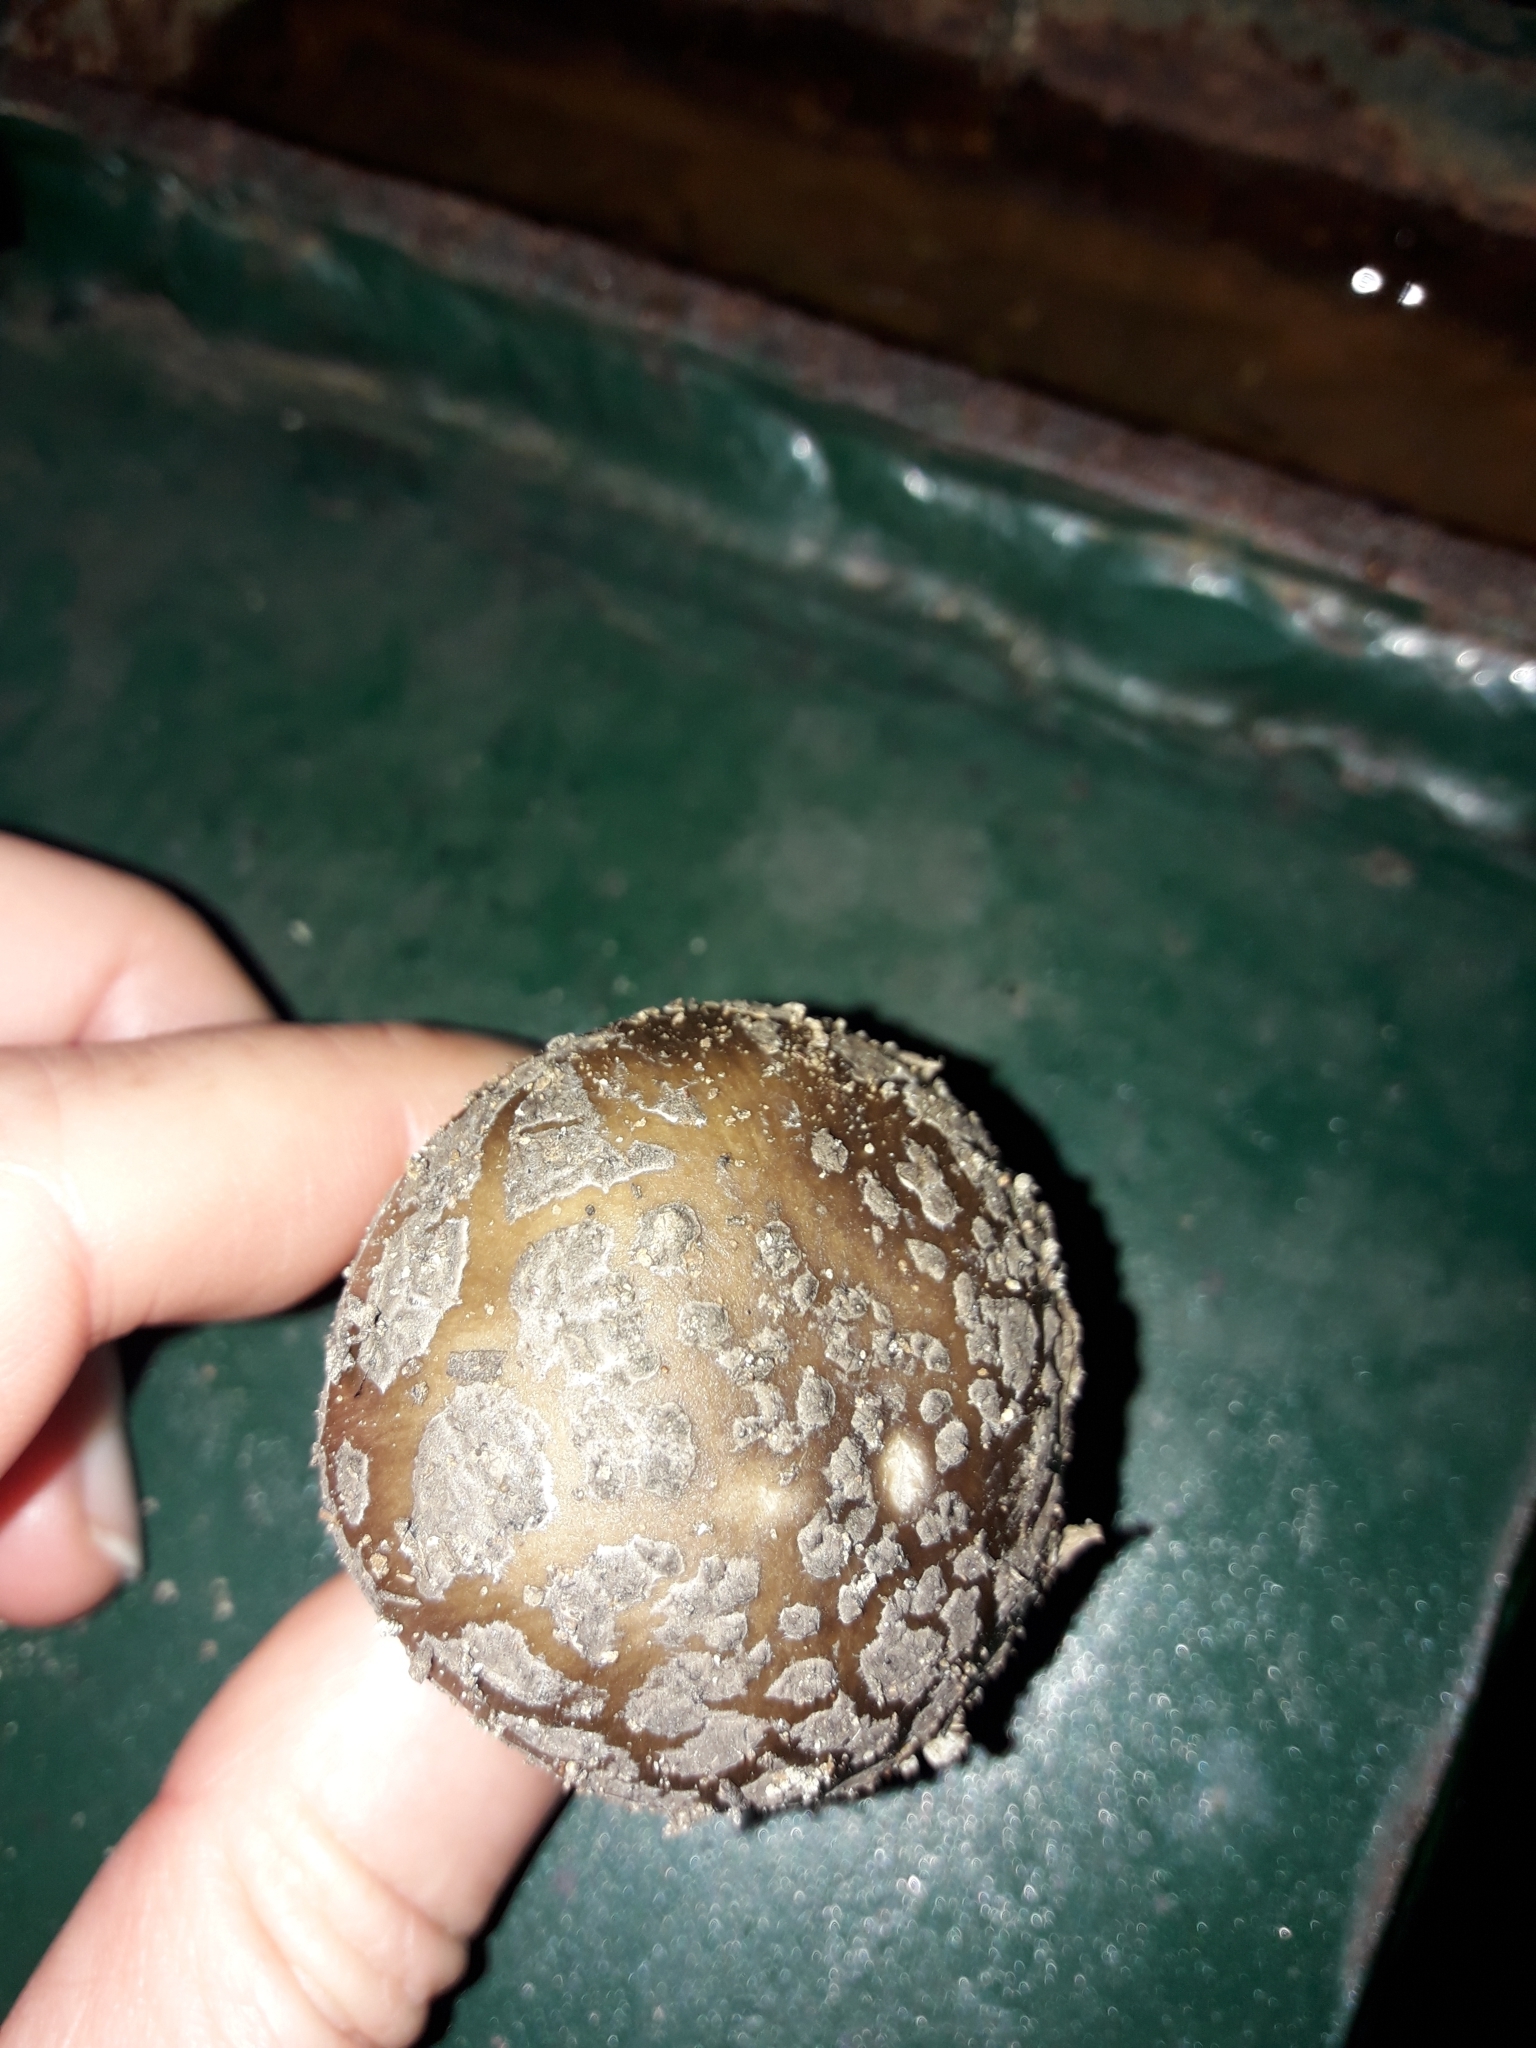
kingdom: Fungi
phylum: Basidiomycota
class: Agaricomycetes
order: Agaricales
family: Amanitaceae
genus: Amanita
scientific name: Amanita nothofagi
